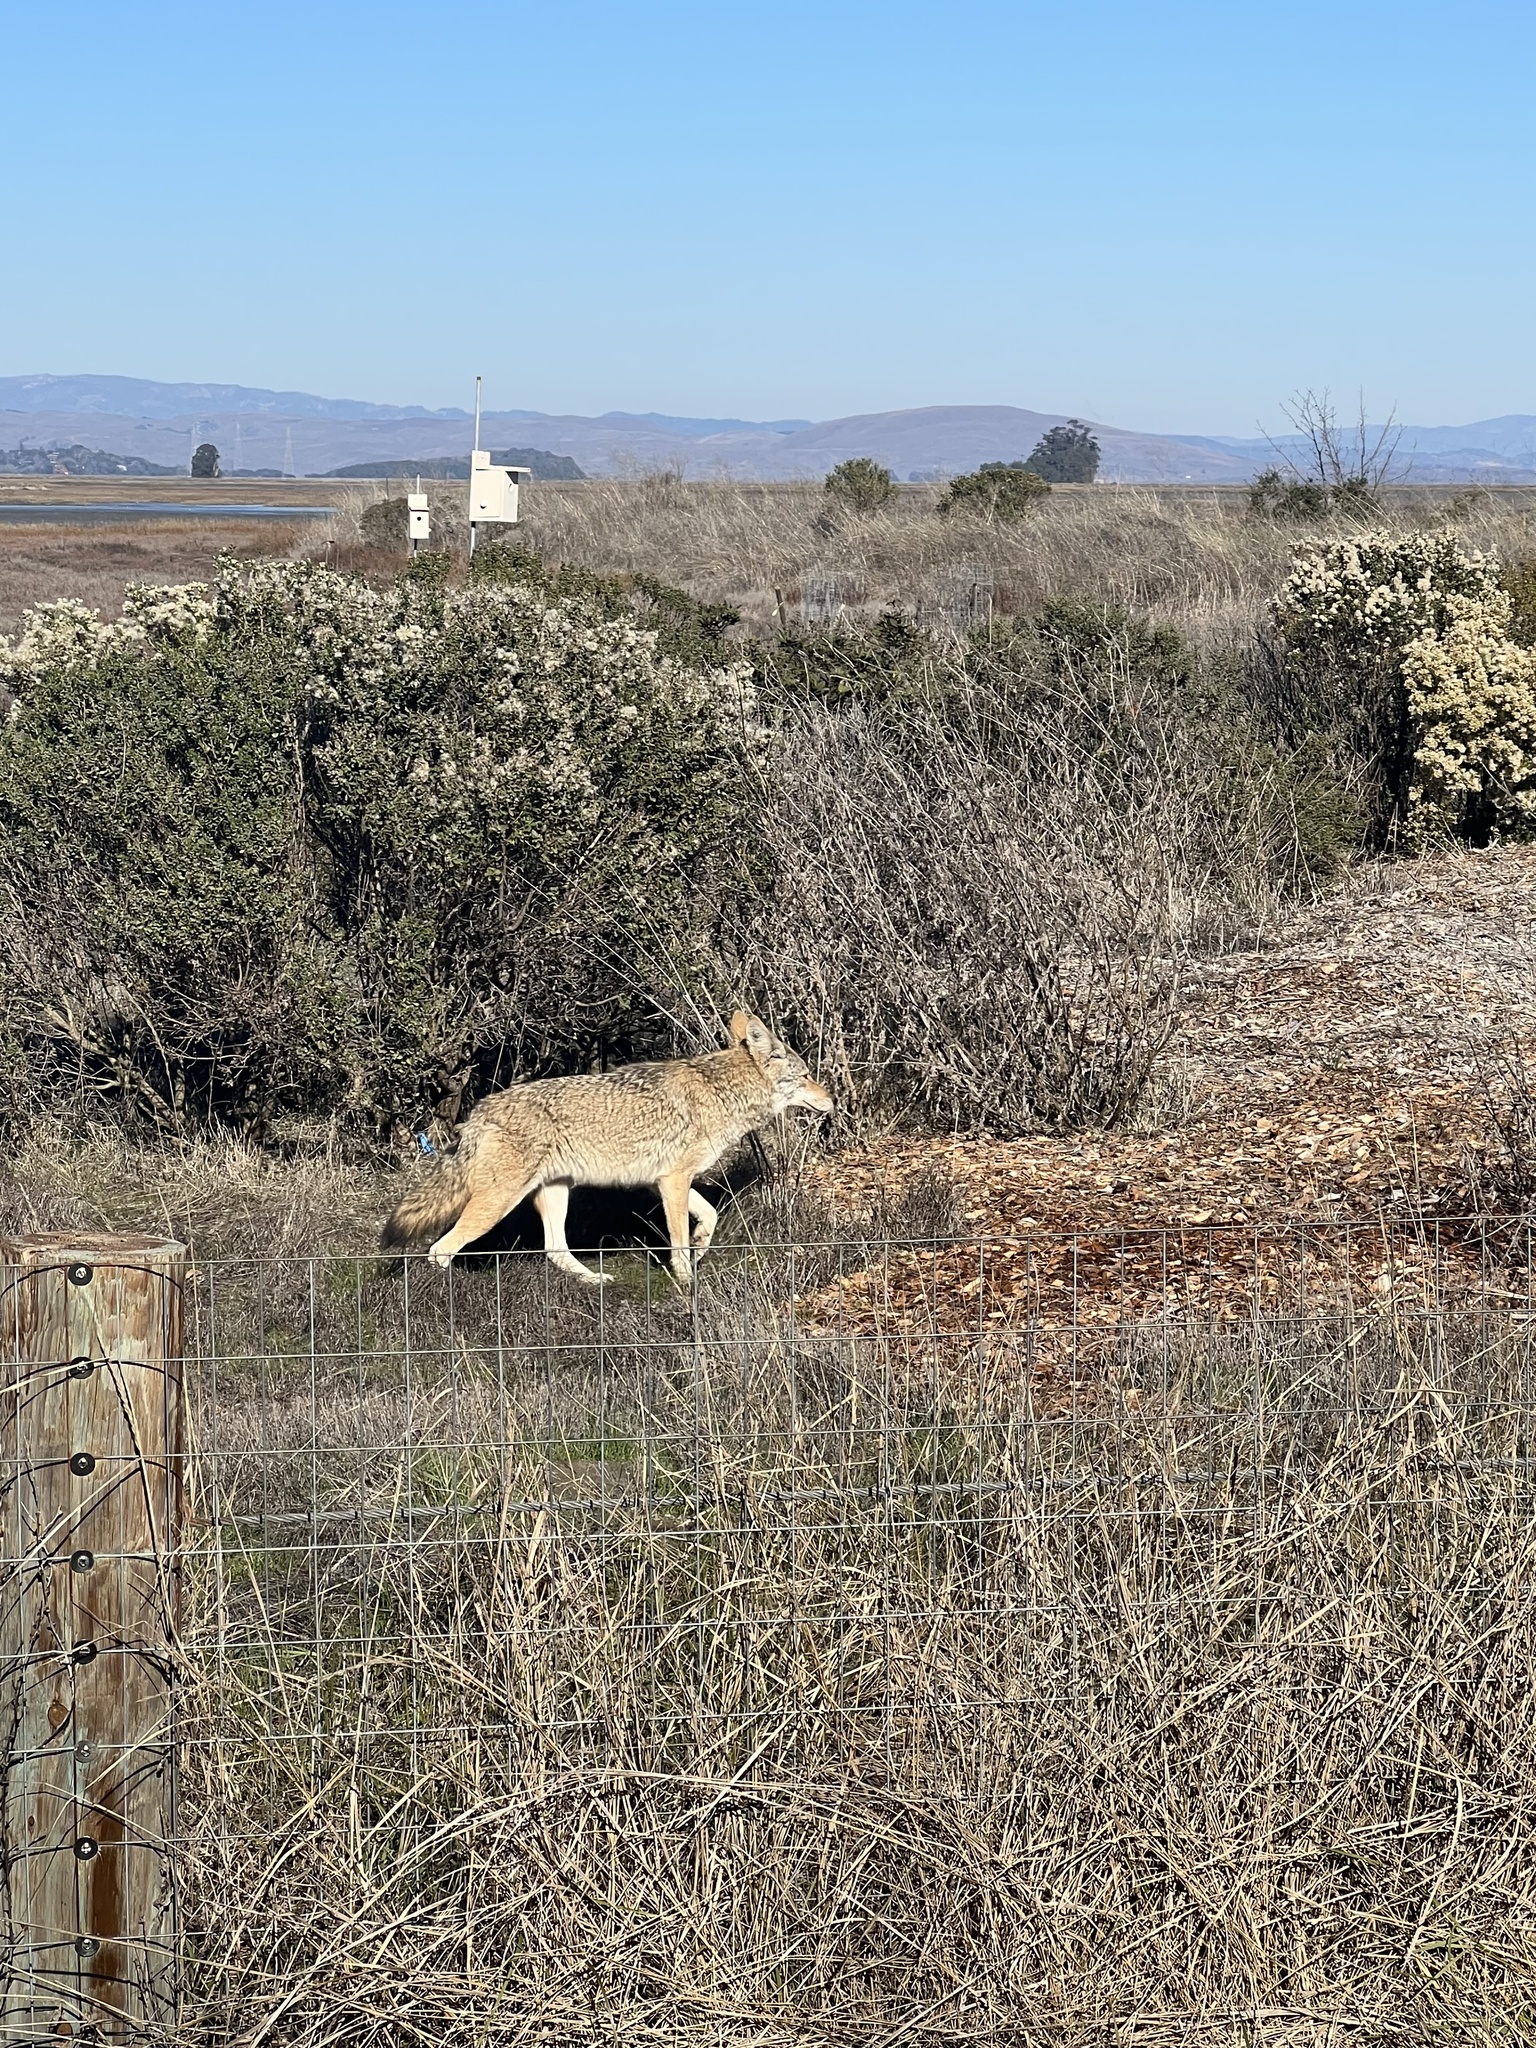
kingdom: Animalia
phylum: Chordata
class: Mammalia
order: Carnivora
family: Canidae
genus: Canis
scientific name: Canis latrans
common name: Coyote
